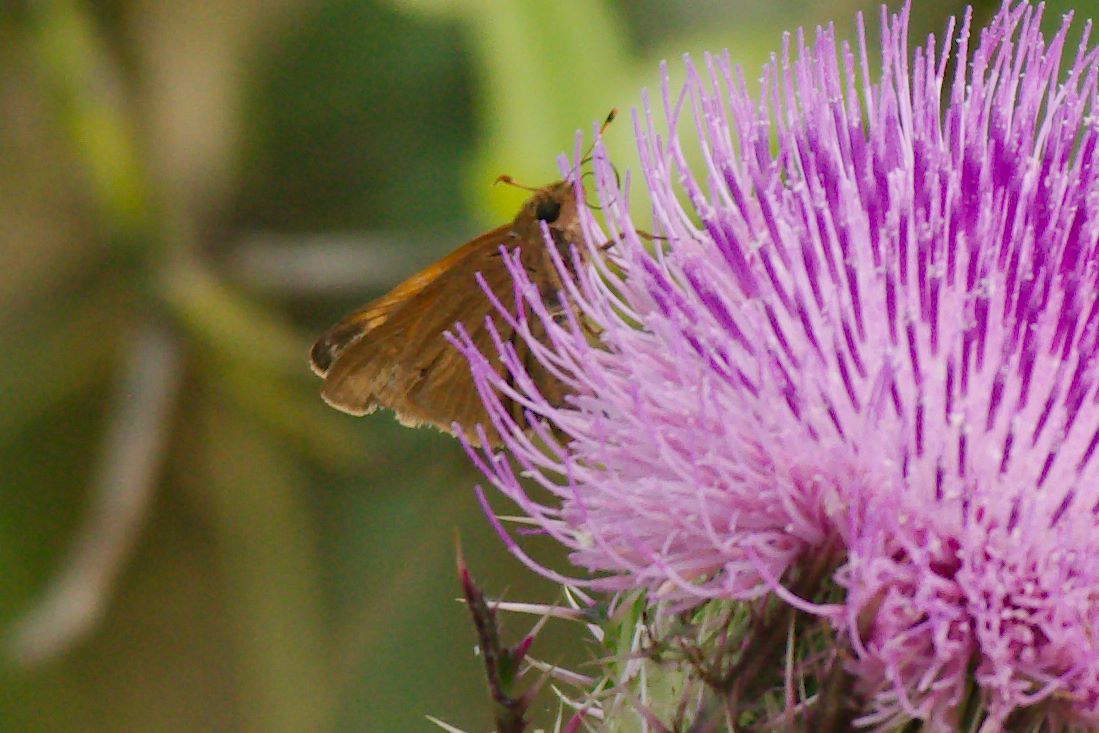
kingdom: Animalia
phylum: Arthropoda
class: Insecta
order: Lepidoptera
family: Hesperiidae
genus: Euphyes
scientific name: Euphyes pilatka
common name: Palatka skipper
